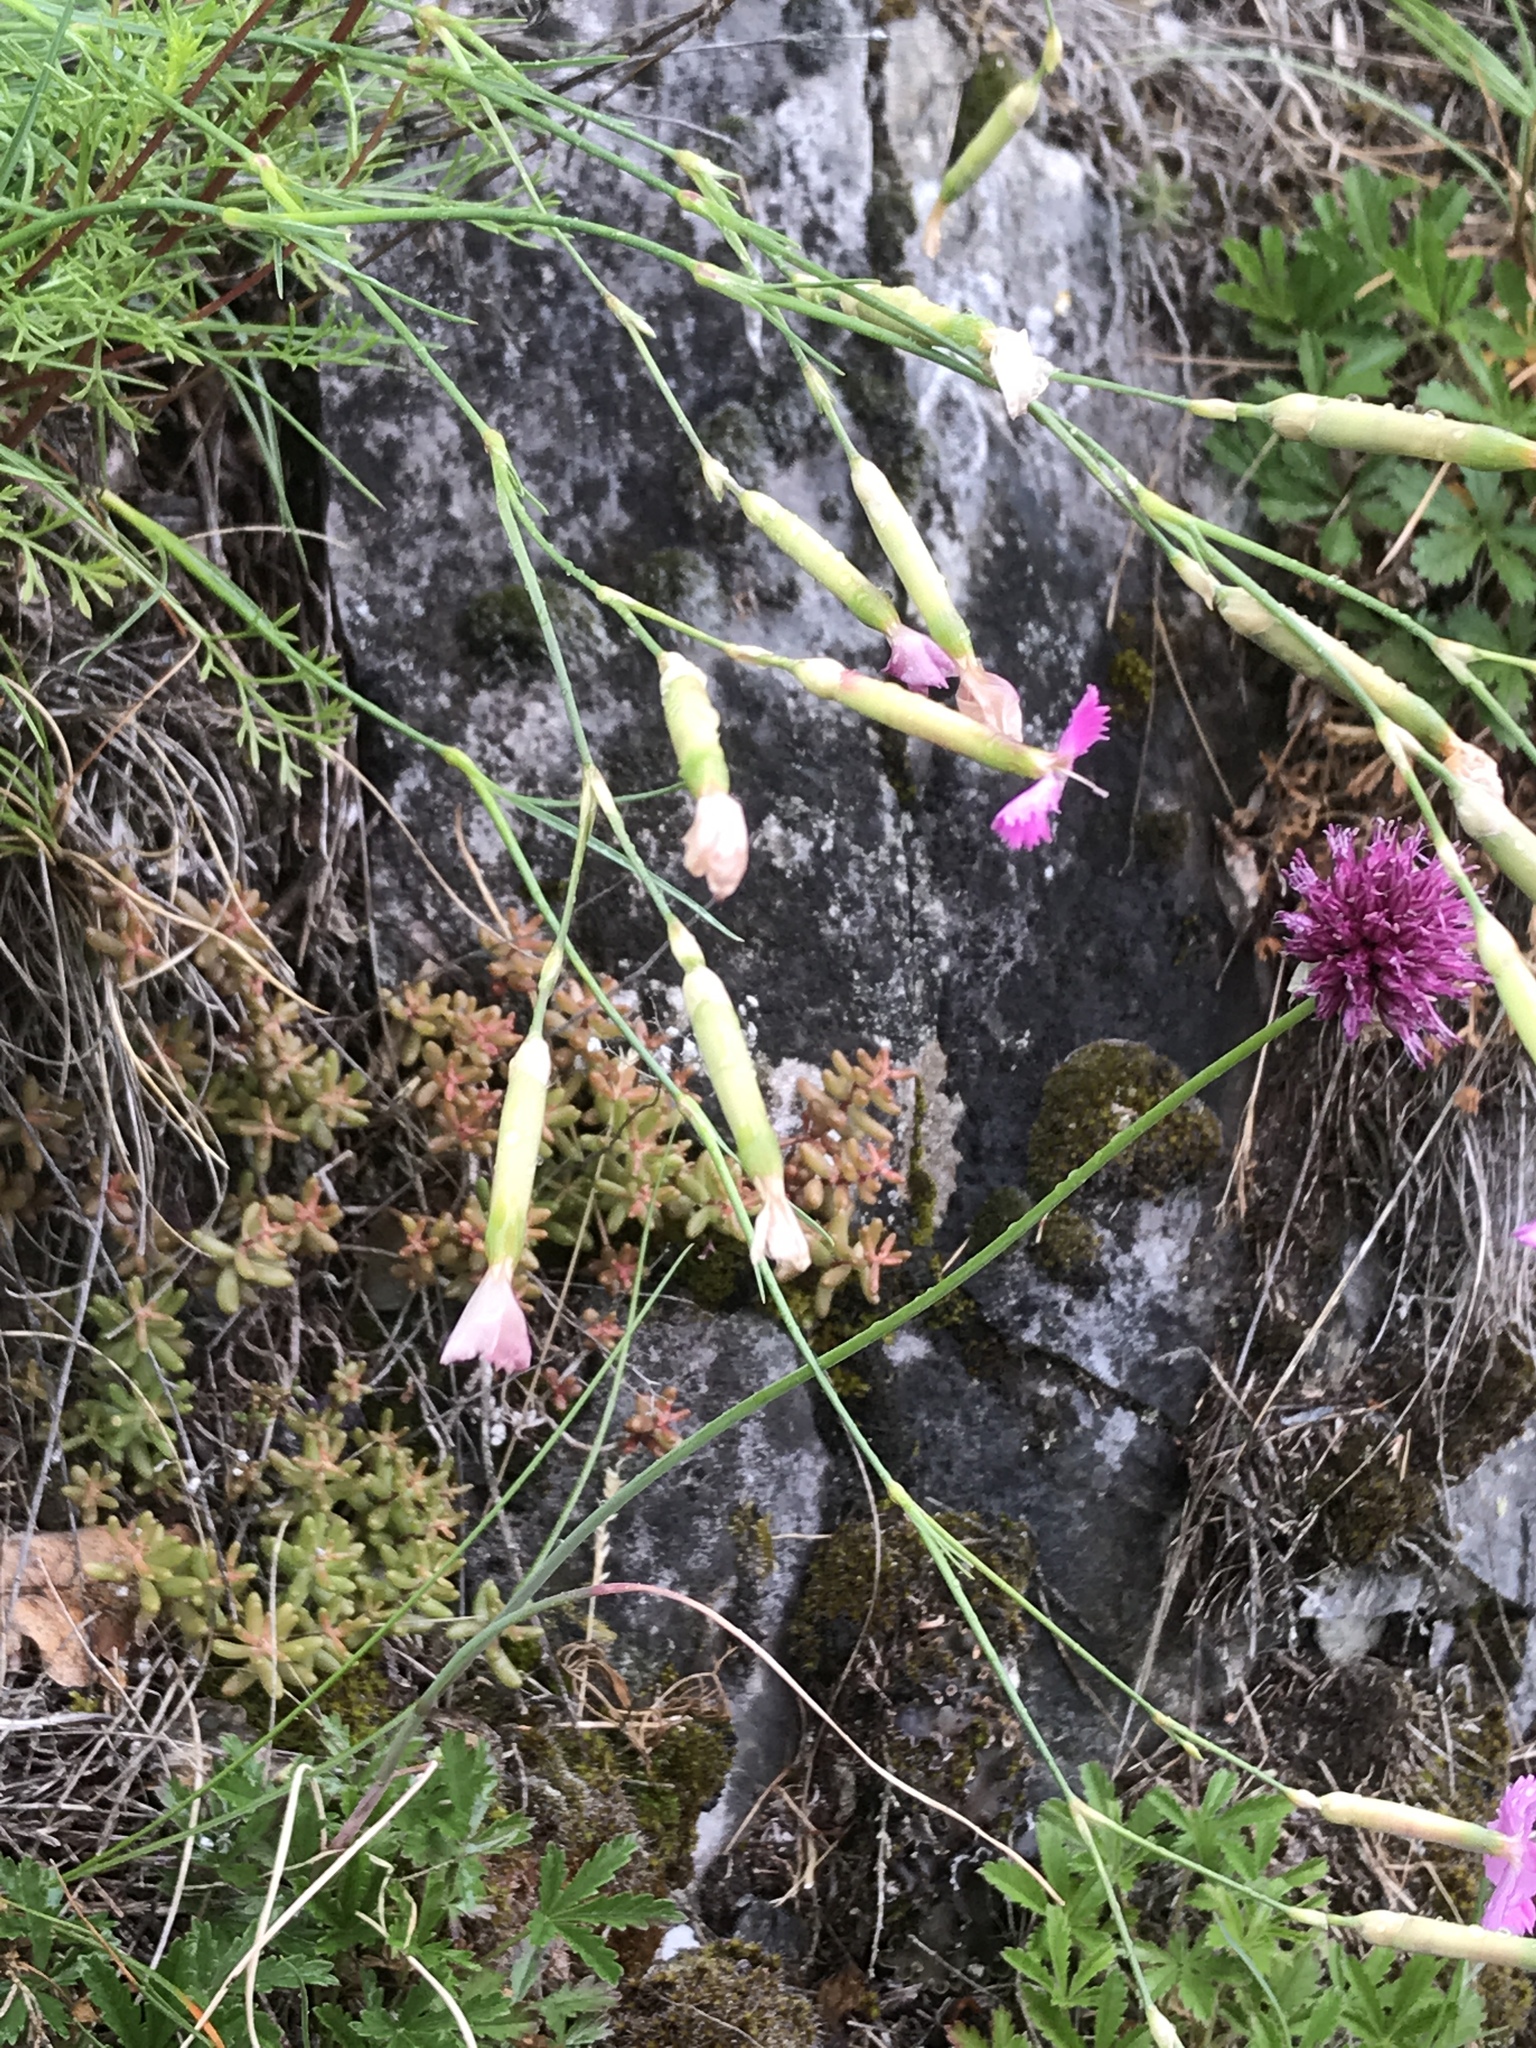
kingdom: Plantae
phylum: Tracheophyta
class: Magnoliopsida
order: Caryophyllales
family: Caryophyllaceae
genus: Dianthus
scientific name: Dianthus sylvestris
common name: Wood pink
